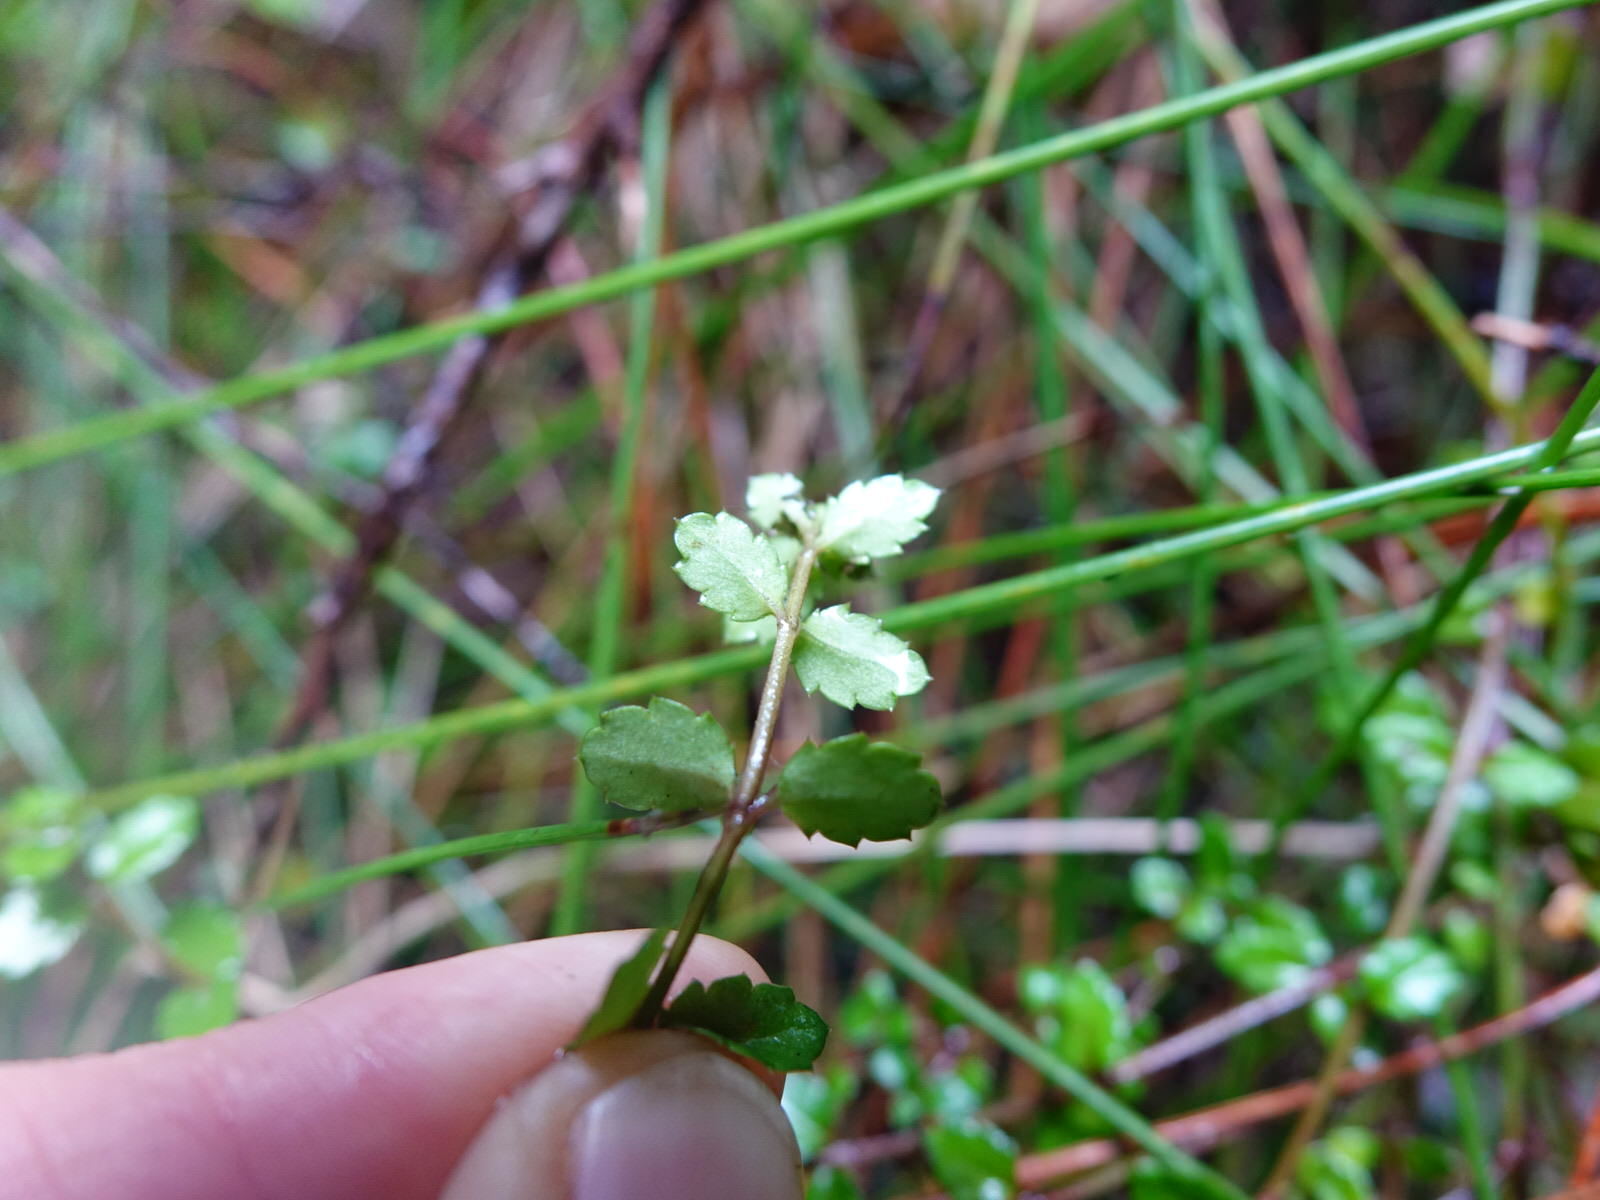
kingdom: Plantae
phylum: Tracheophyta
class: Magnoliopsida
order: Saxifragales
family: Haloragaceae
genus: Gonocarpus
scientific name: Gonocarpus incanus
